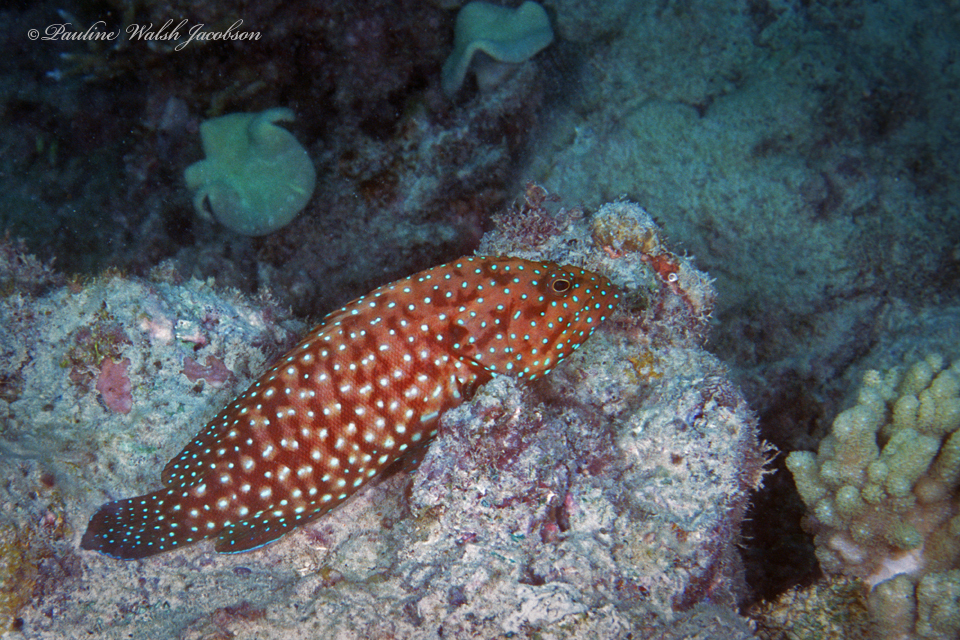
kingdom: Animalia
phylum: Chordata
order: Perciformes
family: Serranidae
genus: Cephalopholis
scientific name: Cephalopholis cyanostigma
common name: Bluespotted hind
